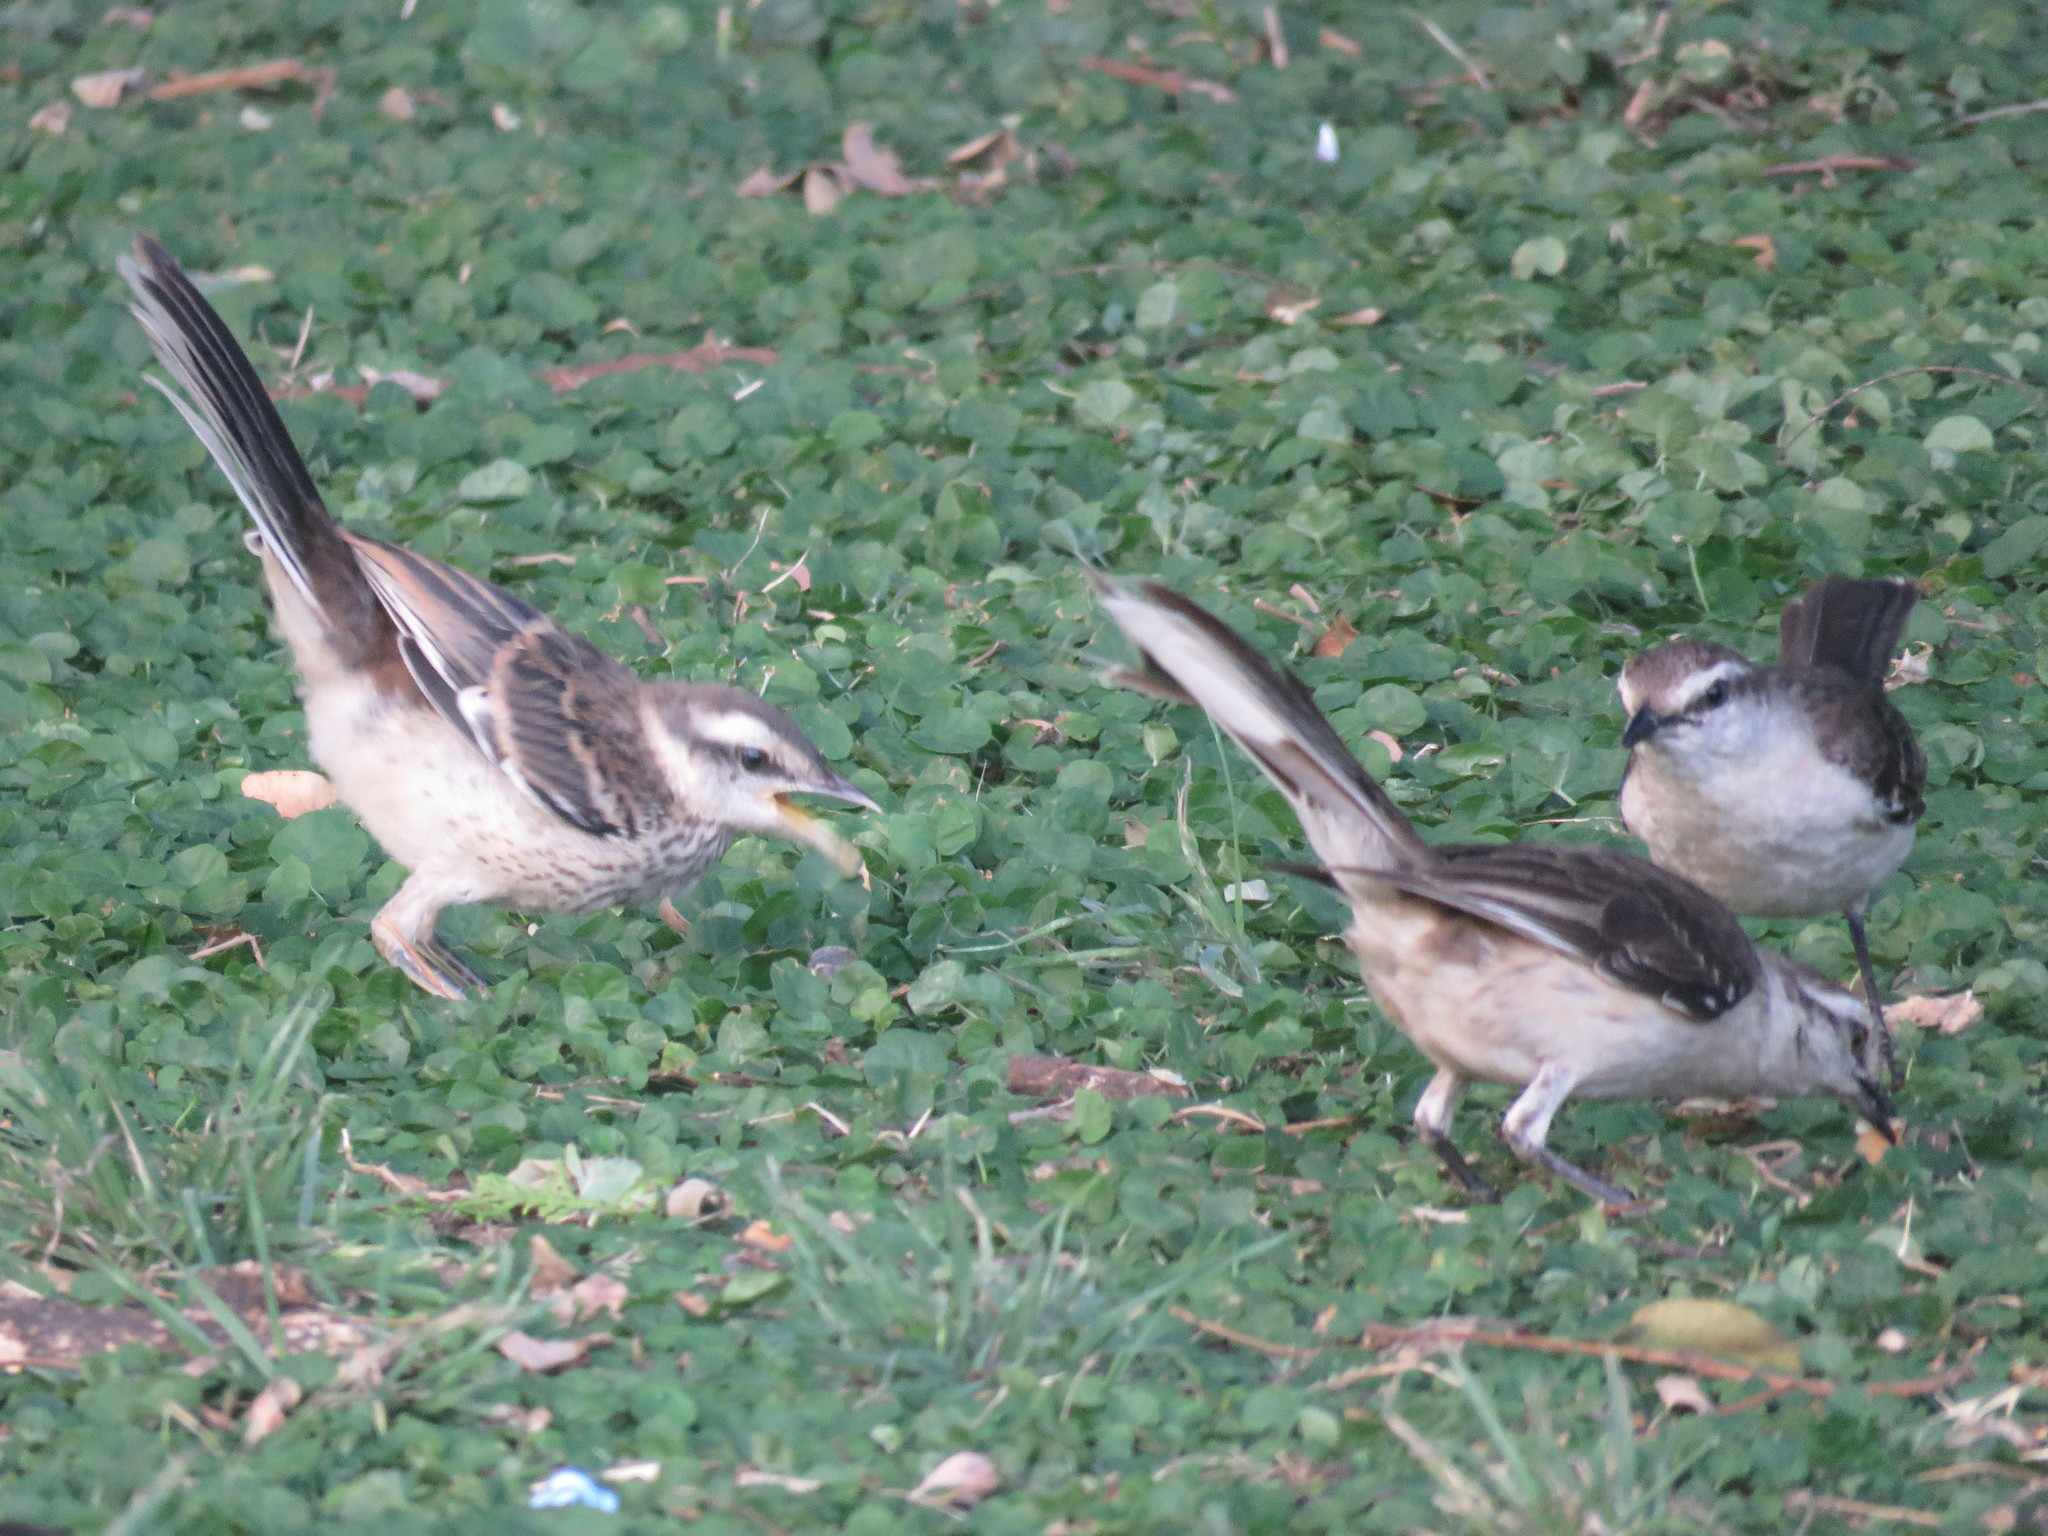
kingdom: Animalia
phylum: Chordata
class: Aves
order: Passeriformes
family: Mimidae
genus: Mimus
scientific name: Mimus saturninus
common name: Chalk-browed mockingbird
